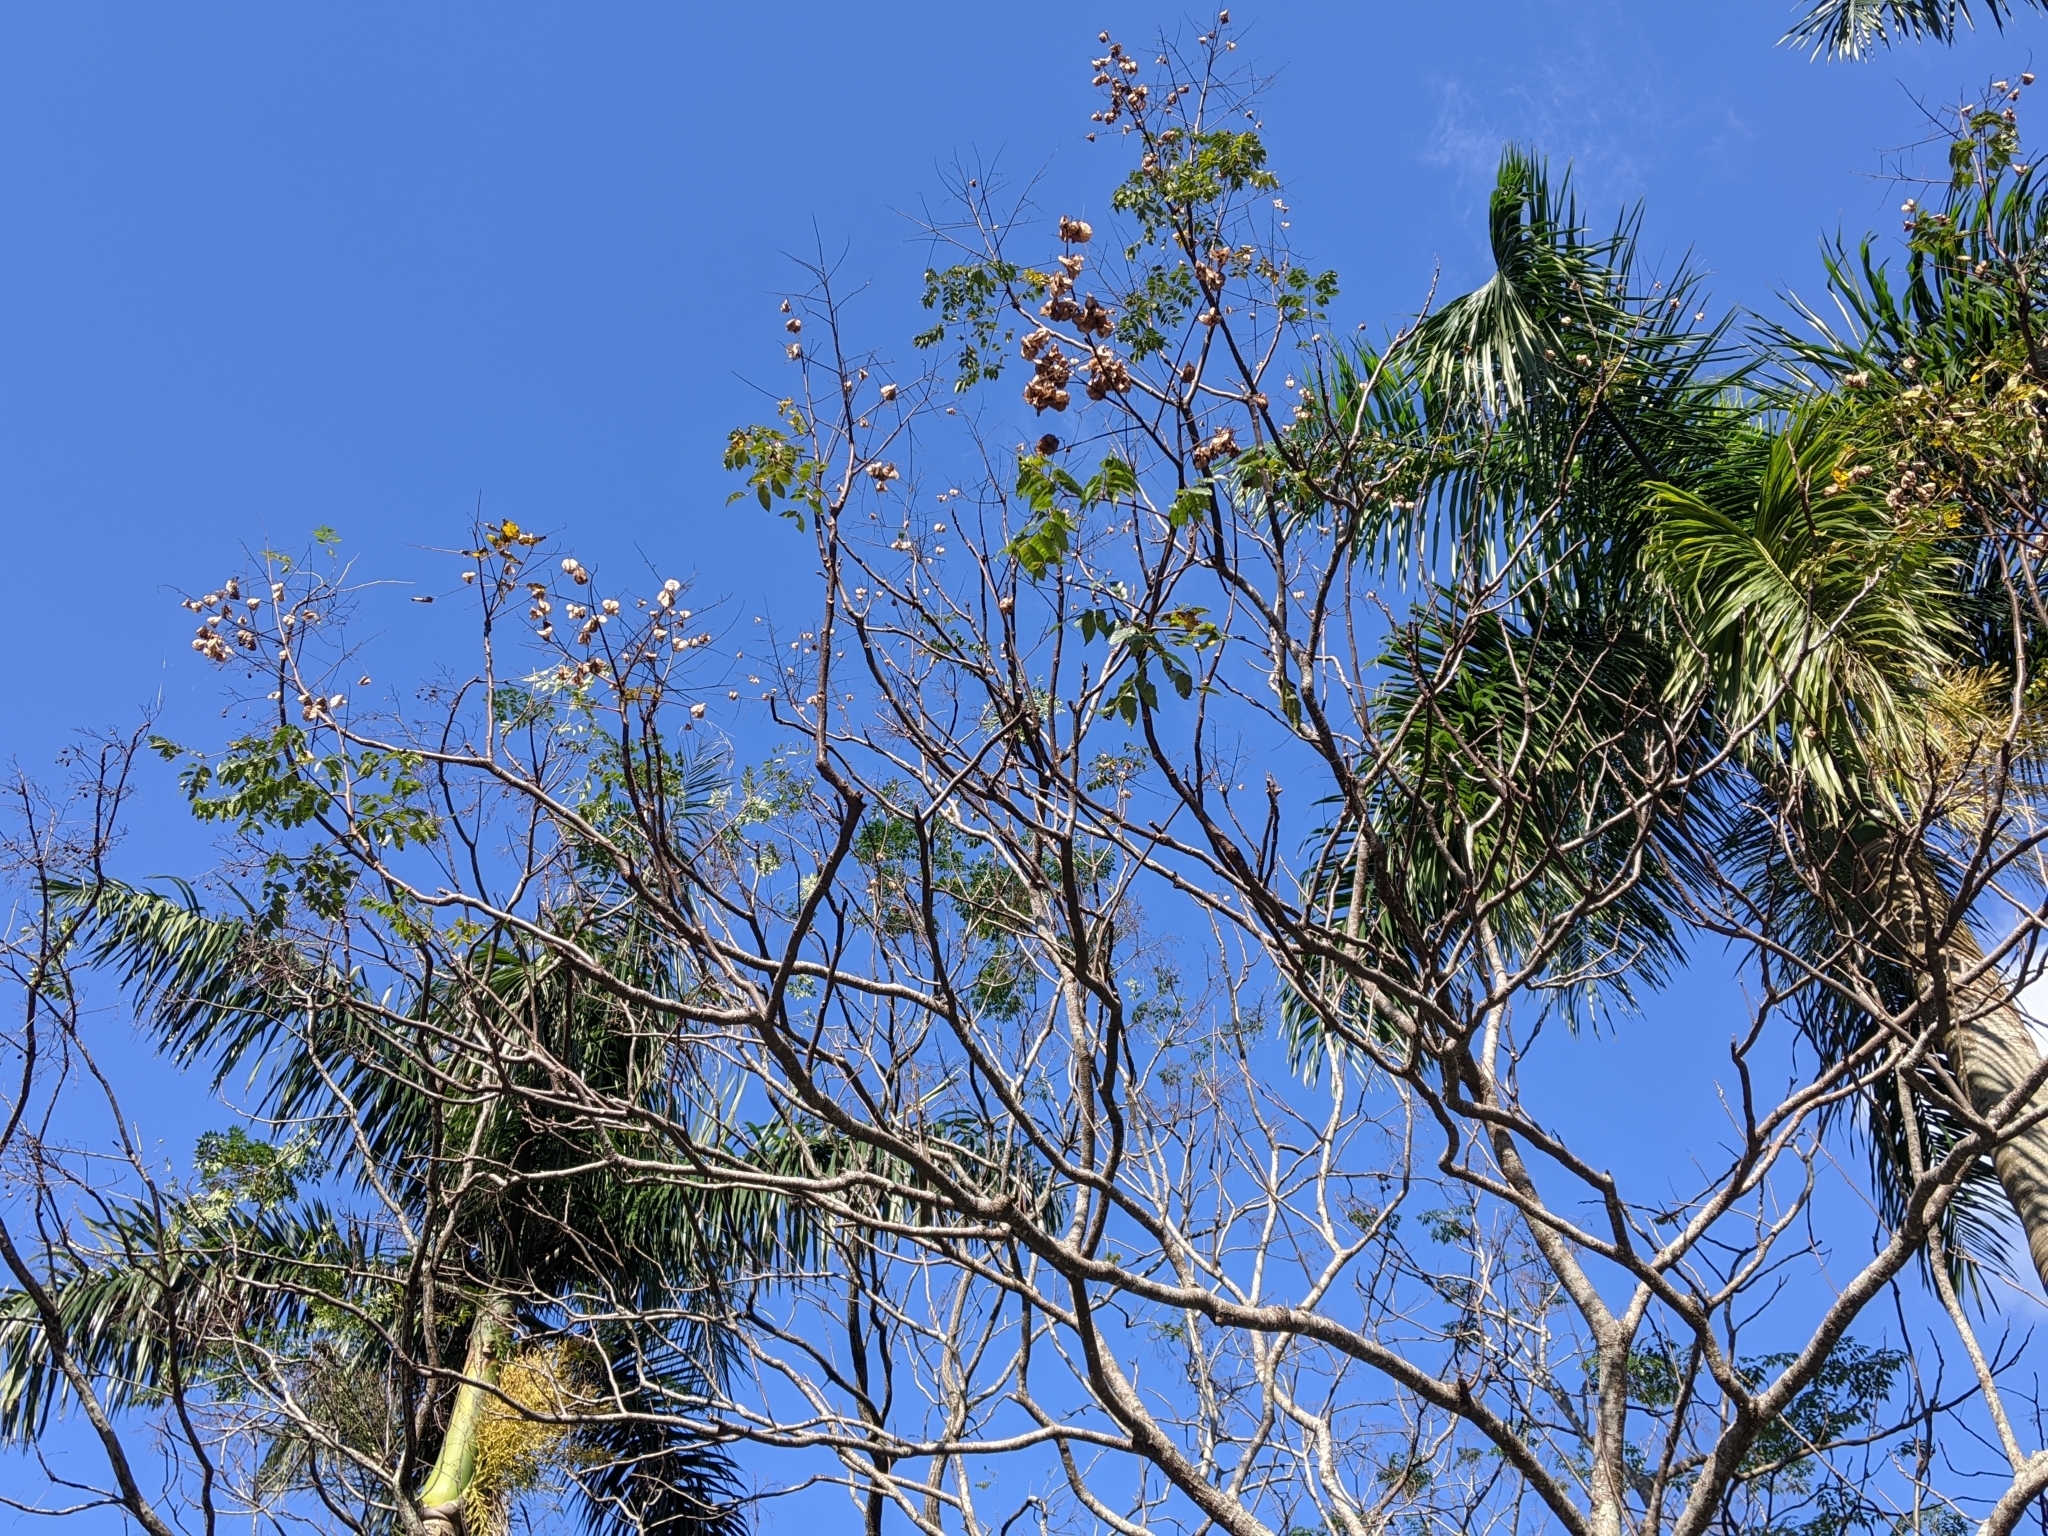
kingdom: Plantae
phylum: Tracheophyta
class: Magnoliopsida
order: Sapindales
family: Sapindaceae
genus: Koelreuteria
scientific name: Koelreuteria elegans
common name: Chinese flame tree
